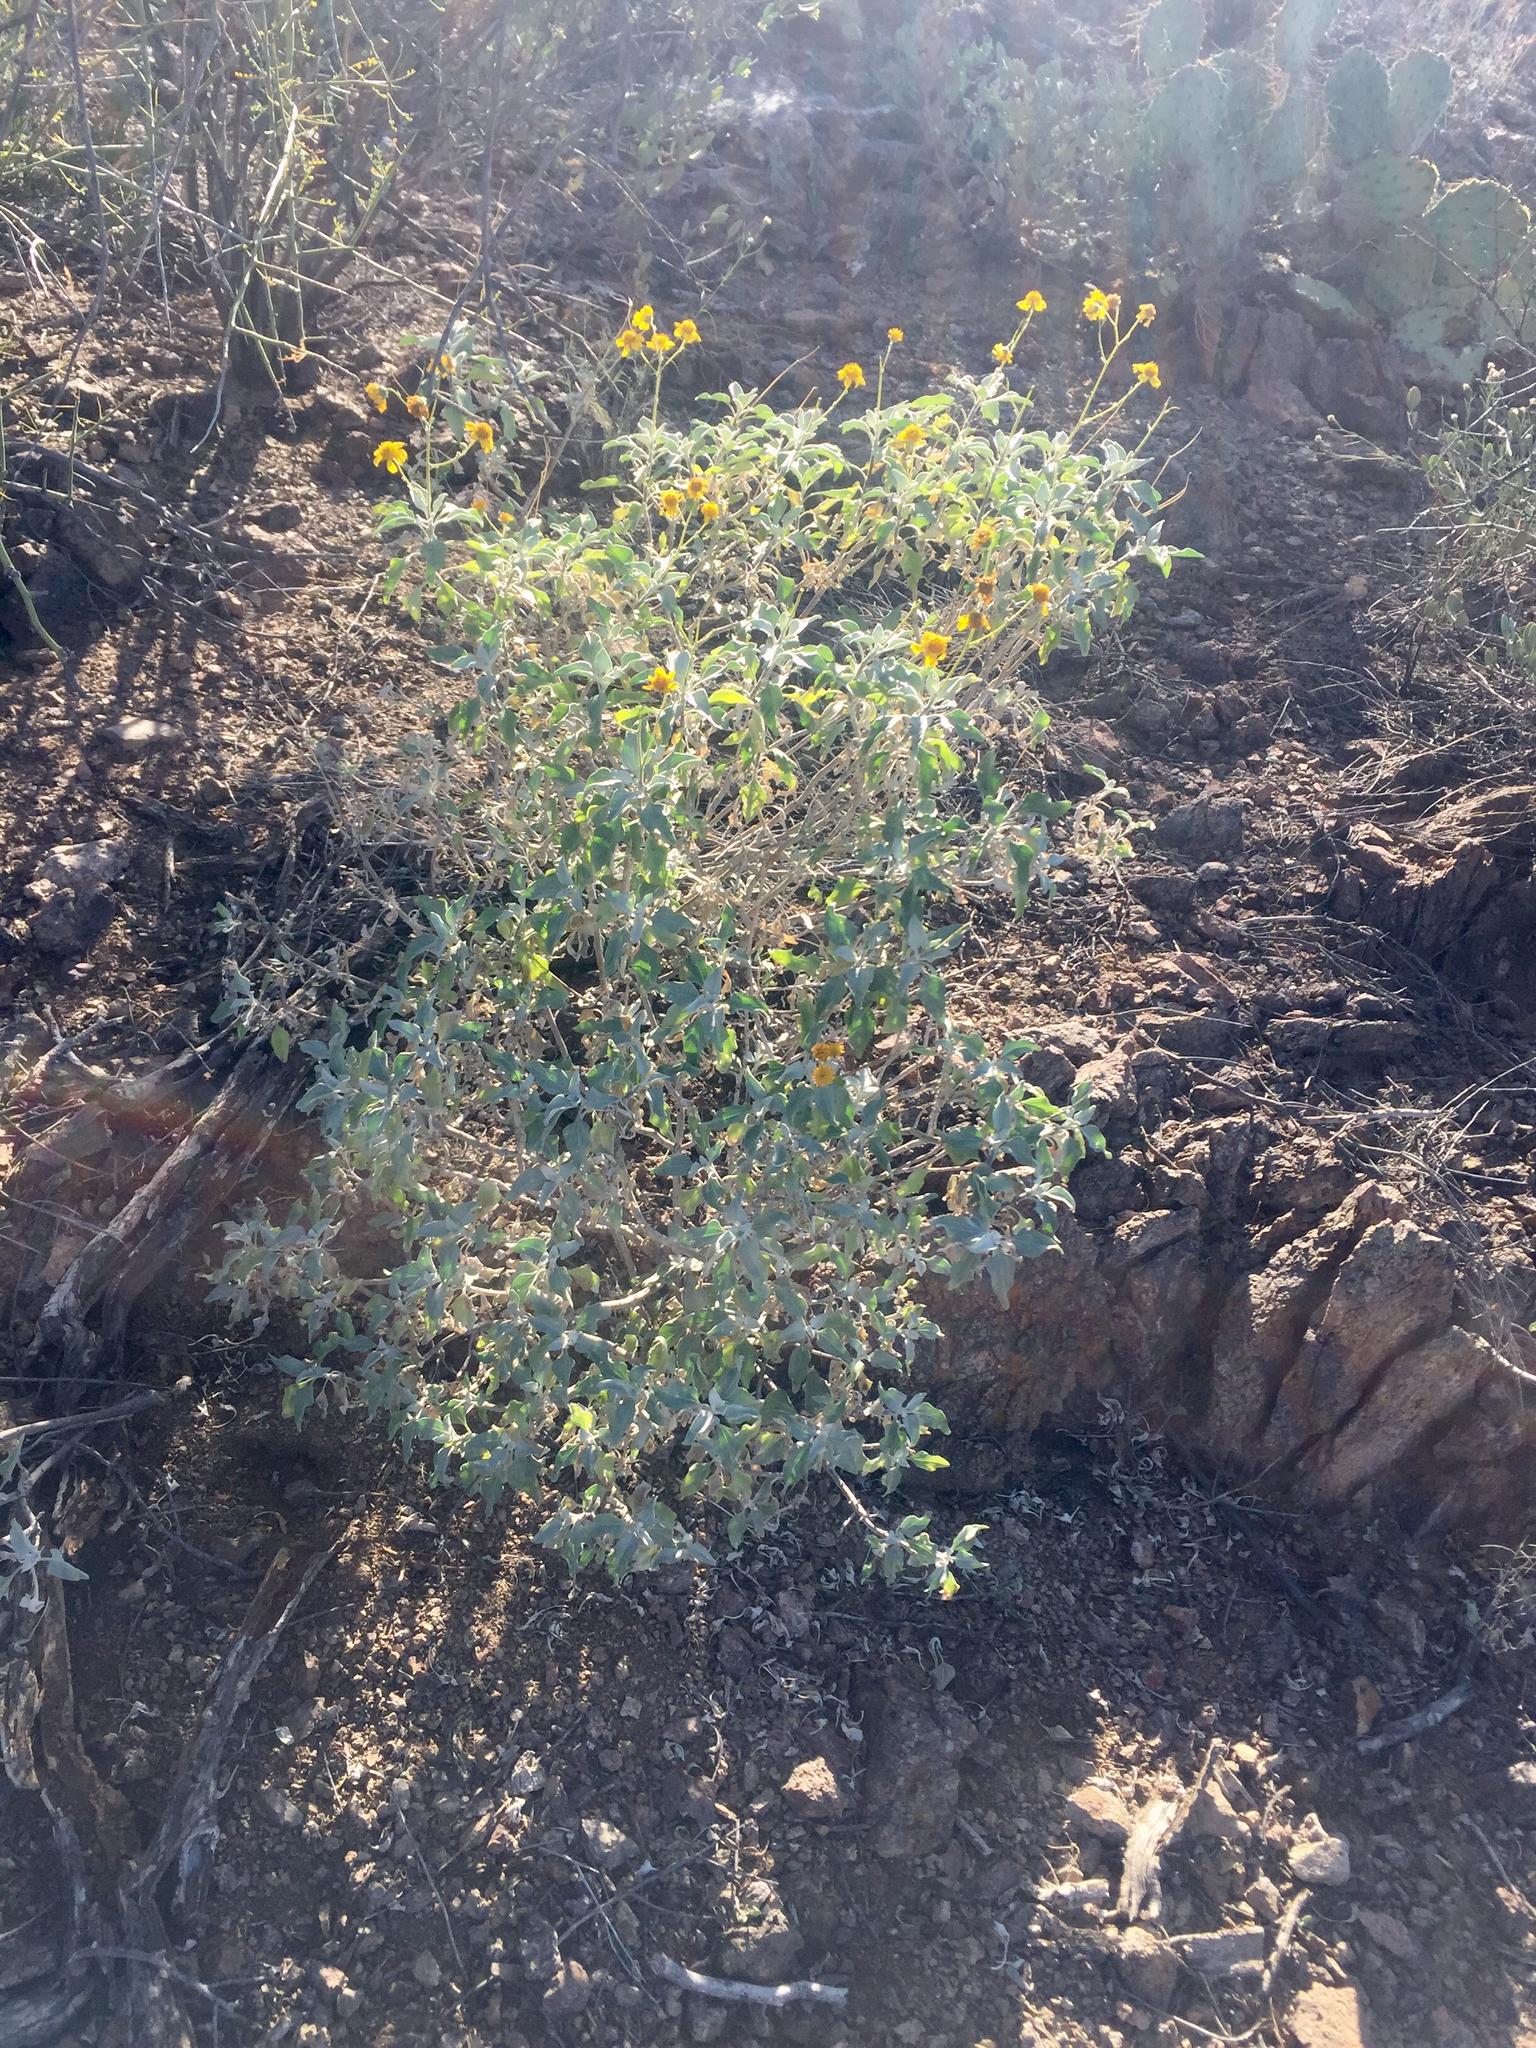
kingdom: Plantae
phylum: Tracheophyta
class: Magnoliopsida
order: Asterales
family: Asteraceae
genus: Encelia
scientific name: Encelia farinosa
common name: Brittlebush
